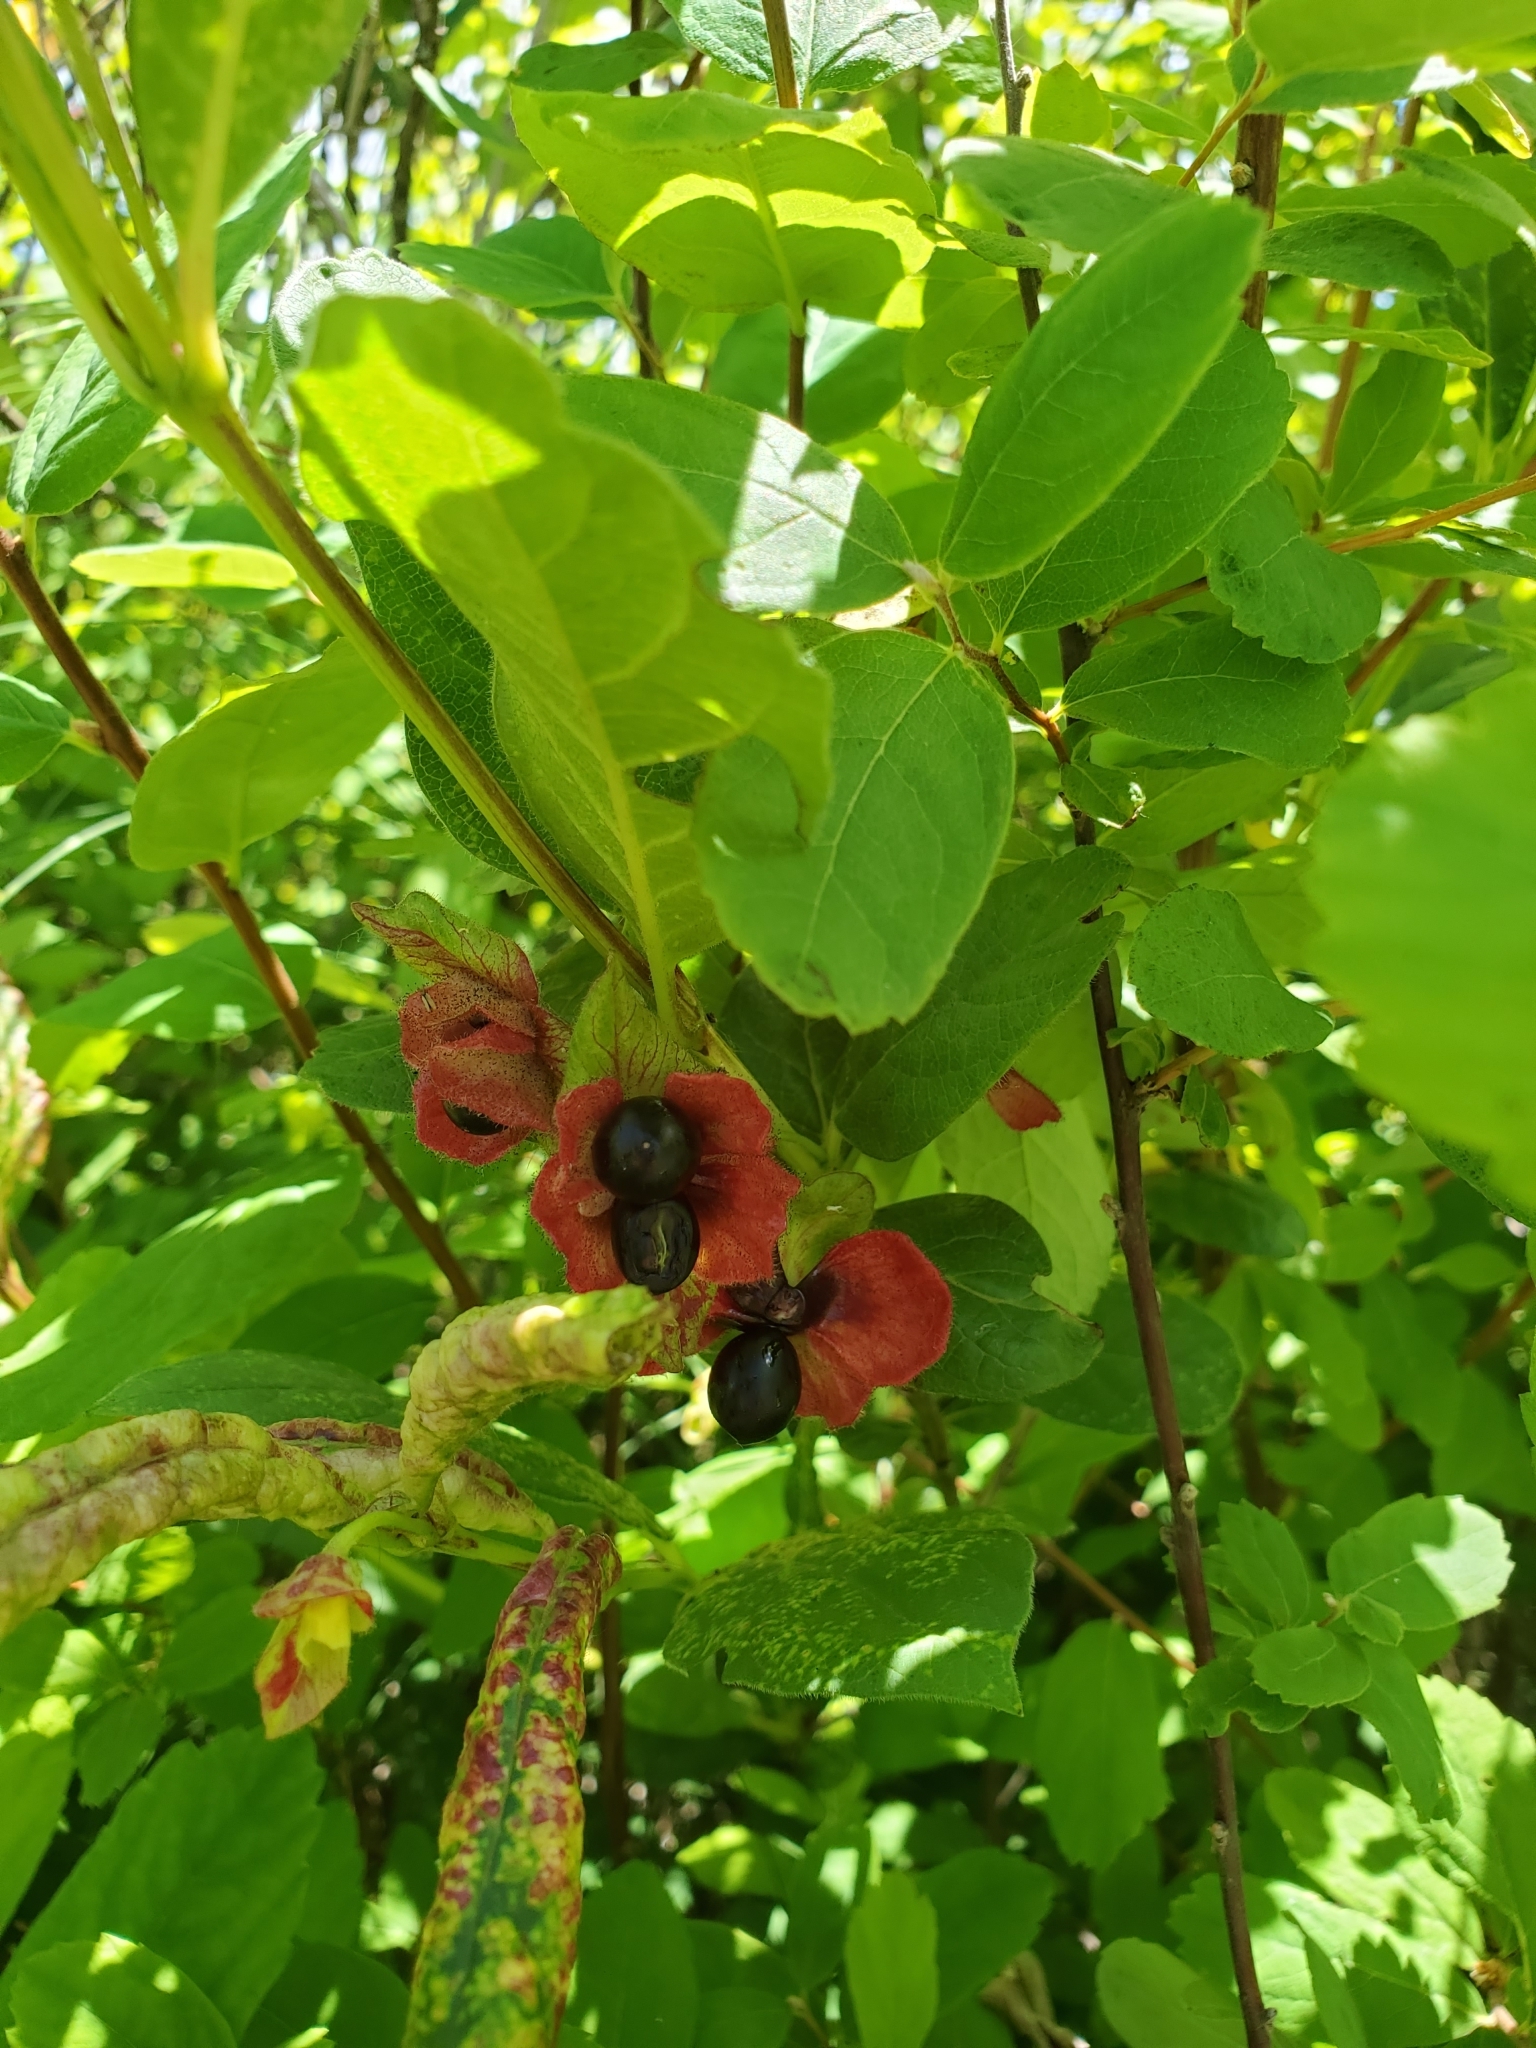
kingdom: Plantae
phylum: Tracheophyta
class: Magnoliopsida
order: Dipsacales
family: Caprifoliaceae
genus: Lonicera
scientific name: Lonicera involucrata
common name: Californian honeysuckle
